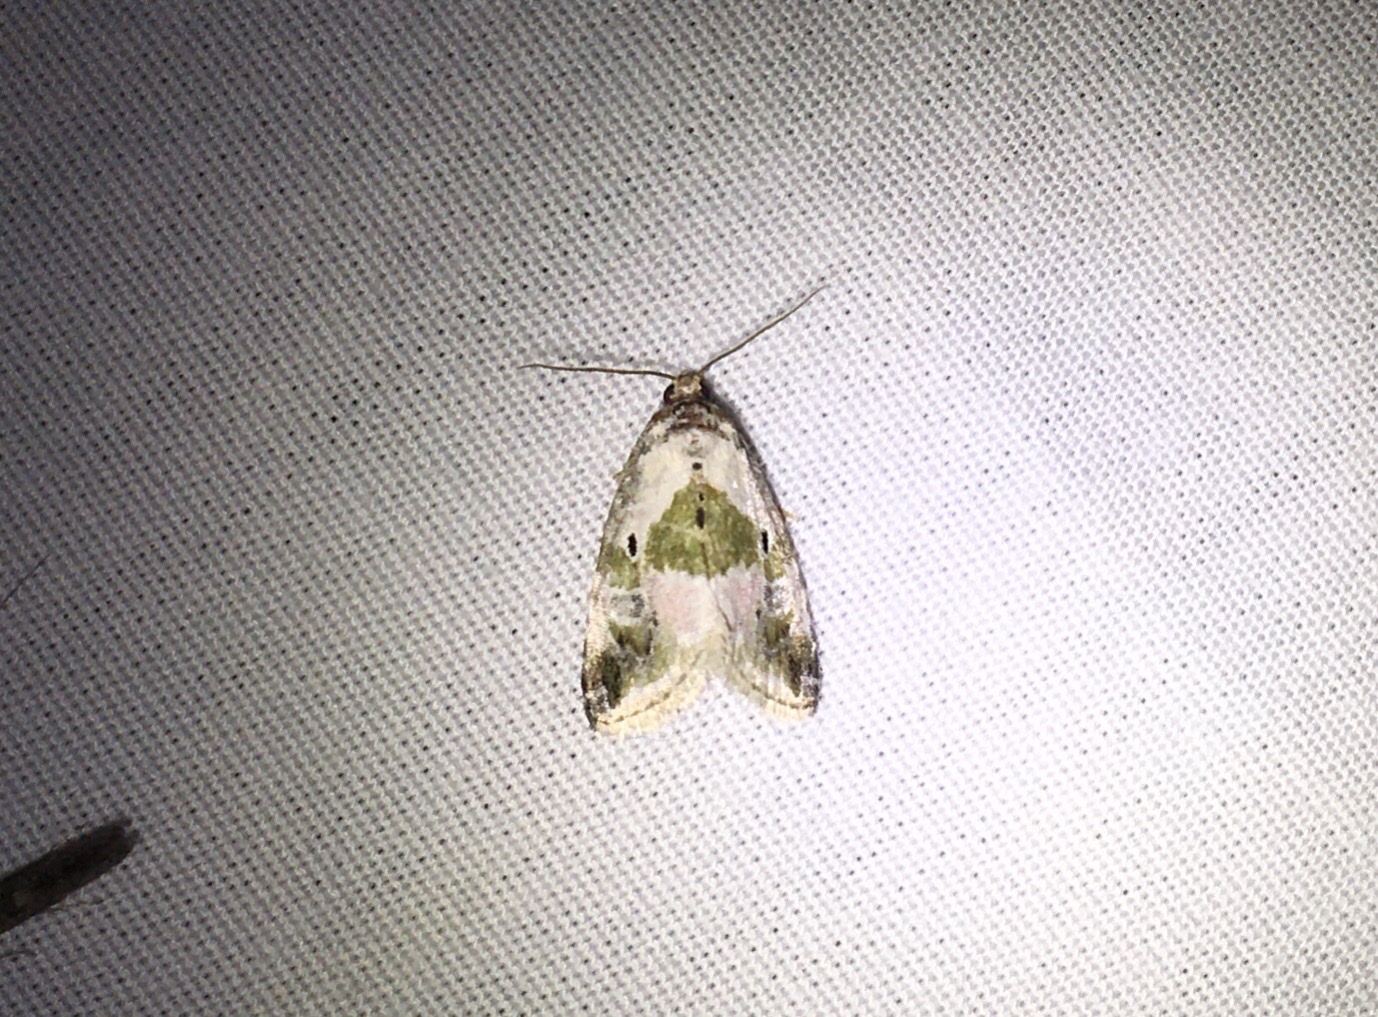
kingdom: Animalia
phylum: Arthropoda
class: Insecta
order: Lepidoptera
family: Noctuidae
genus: Maliattha
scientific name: Maliattha synochitis
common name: Black-dotted glyph
